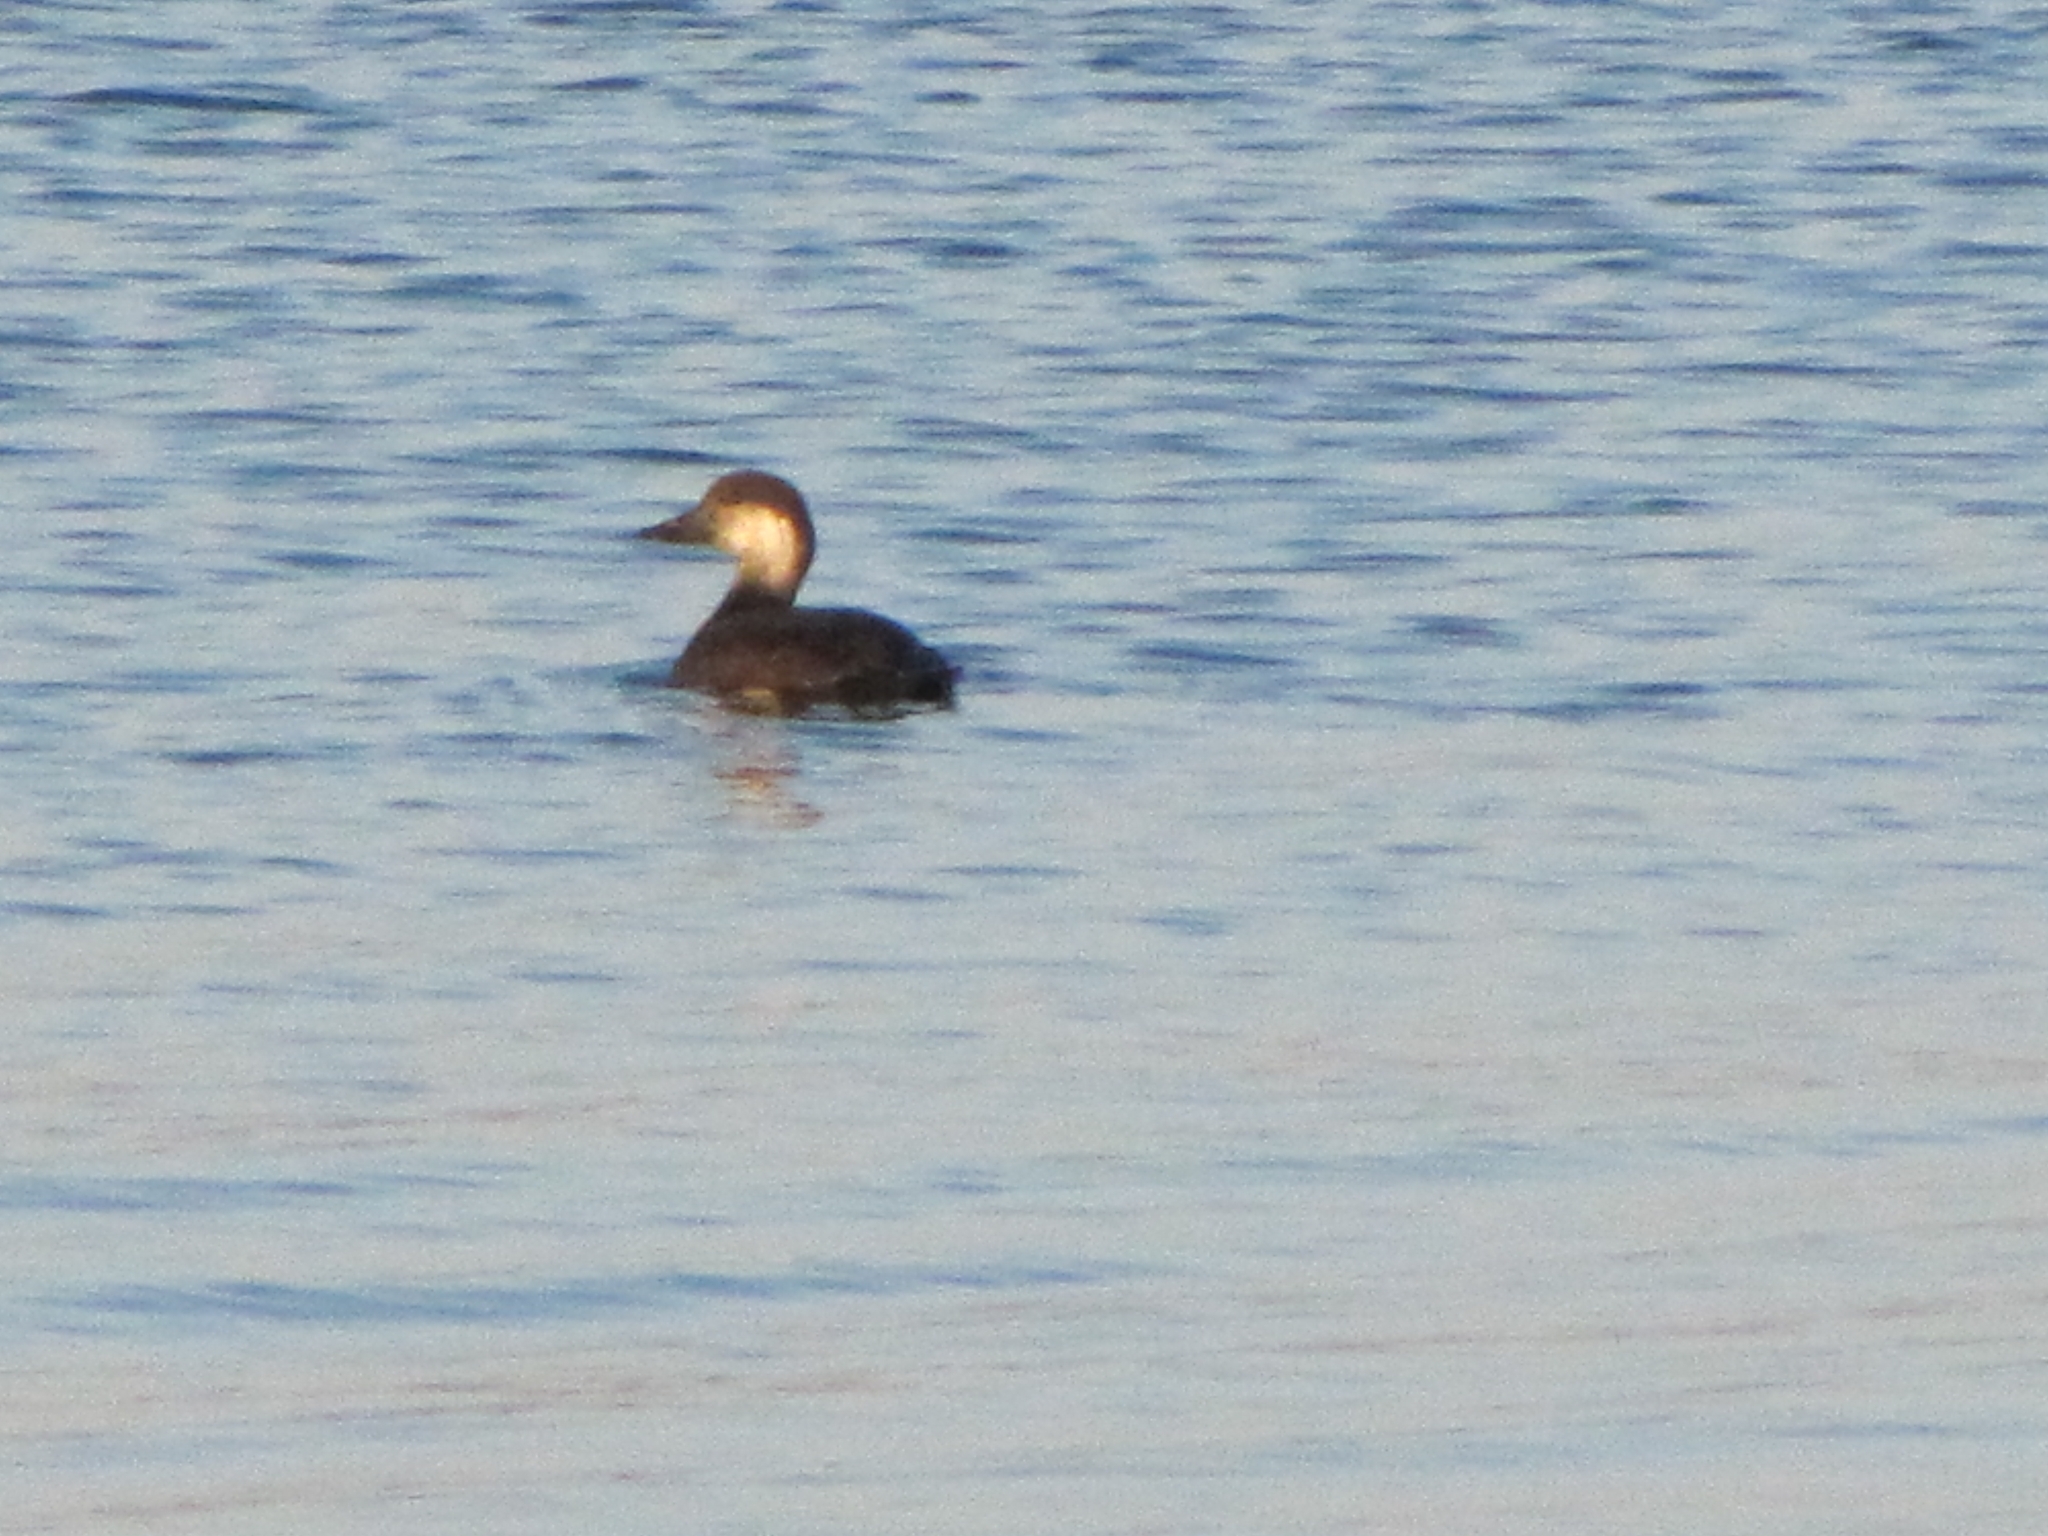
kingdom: Animalia
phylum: Chordata
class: Aves
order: Anseriformes
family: Anatidae
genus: Melanitta
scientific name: Melanitta americana
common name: Black scoter
